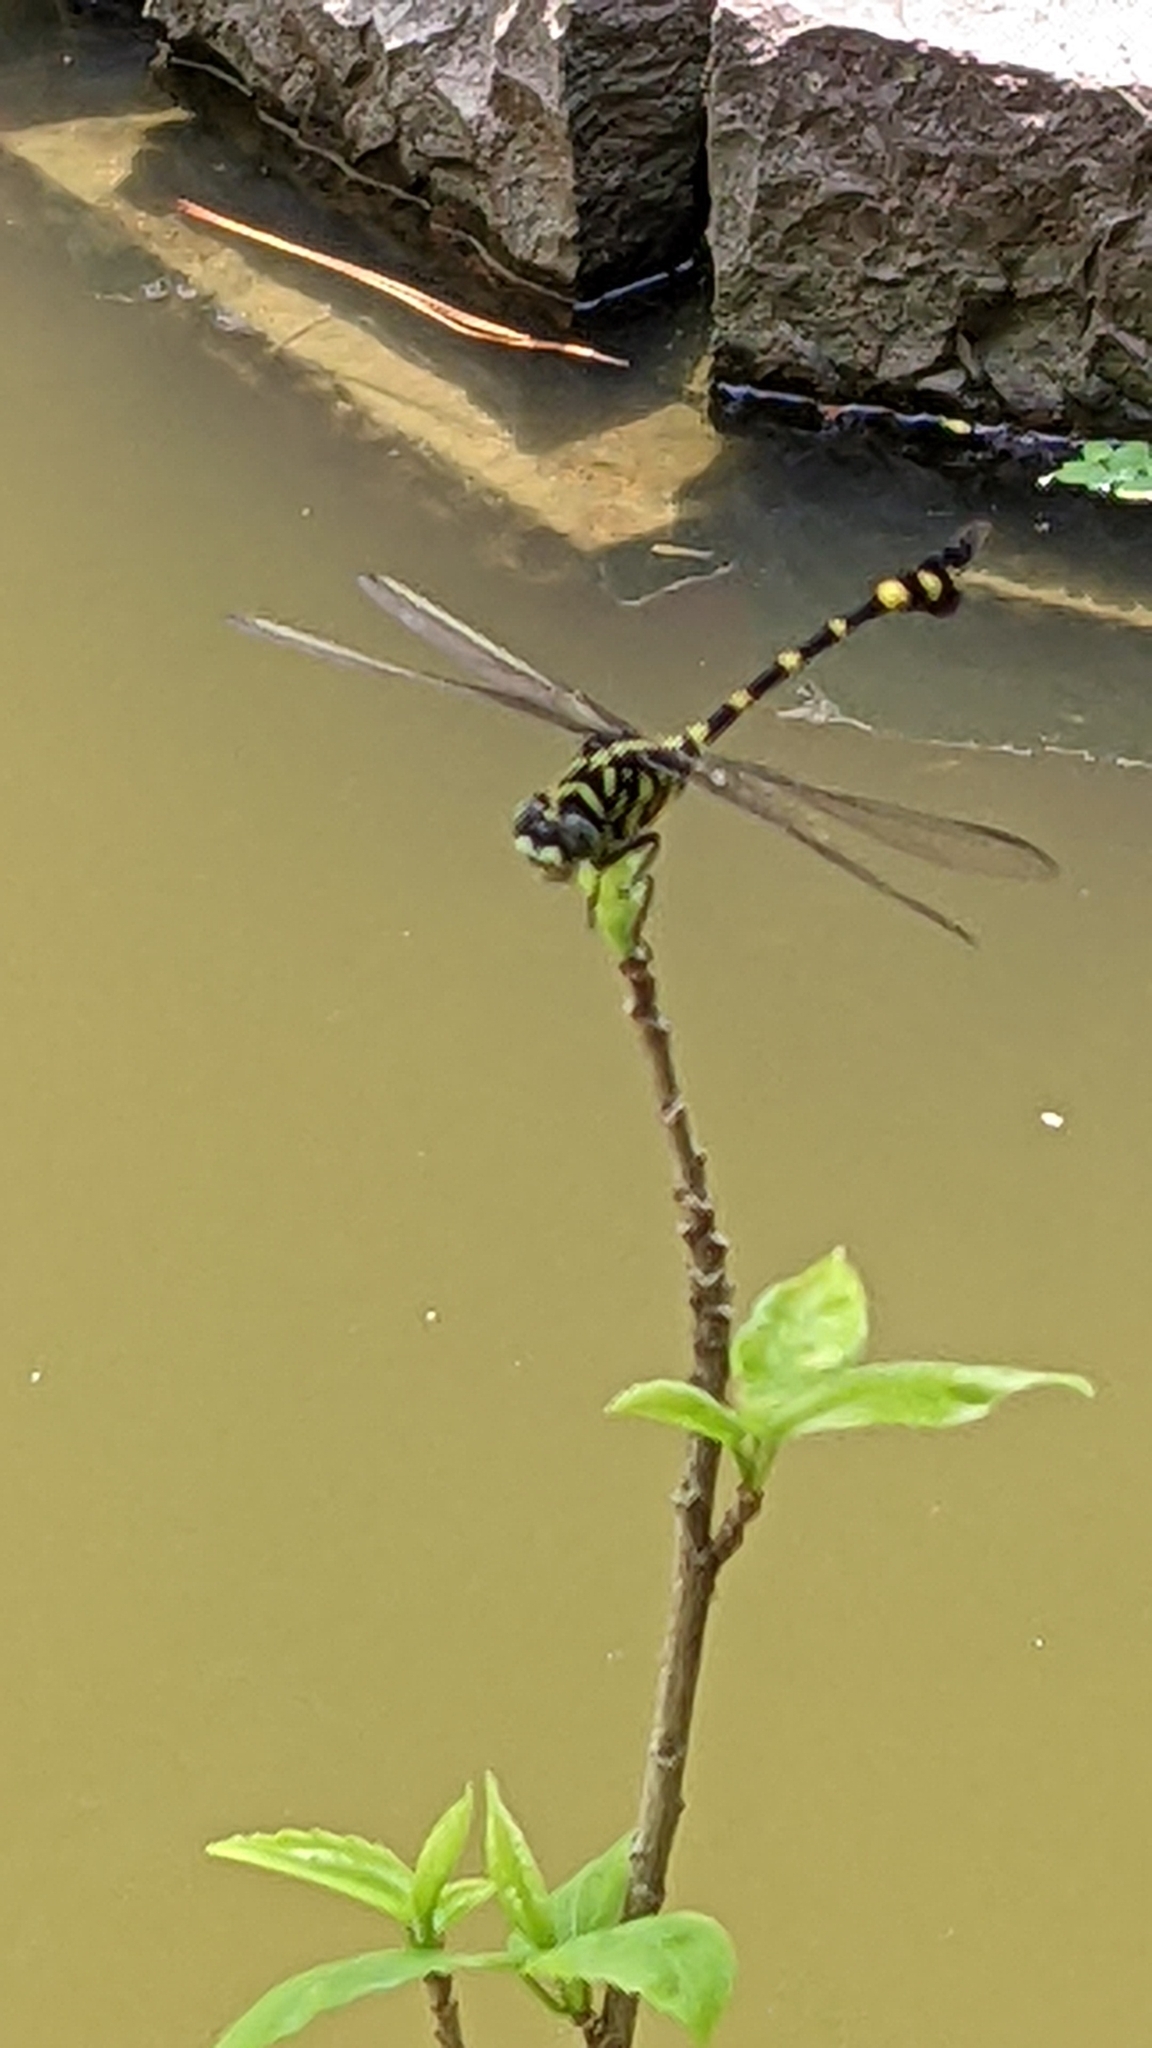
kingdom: Animalia
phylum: Arthropoda
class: Insecta
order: Odonata
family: Gomphidae
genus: Ictinogomphus
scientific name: Ictinogomphus rapax
